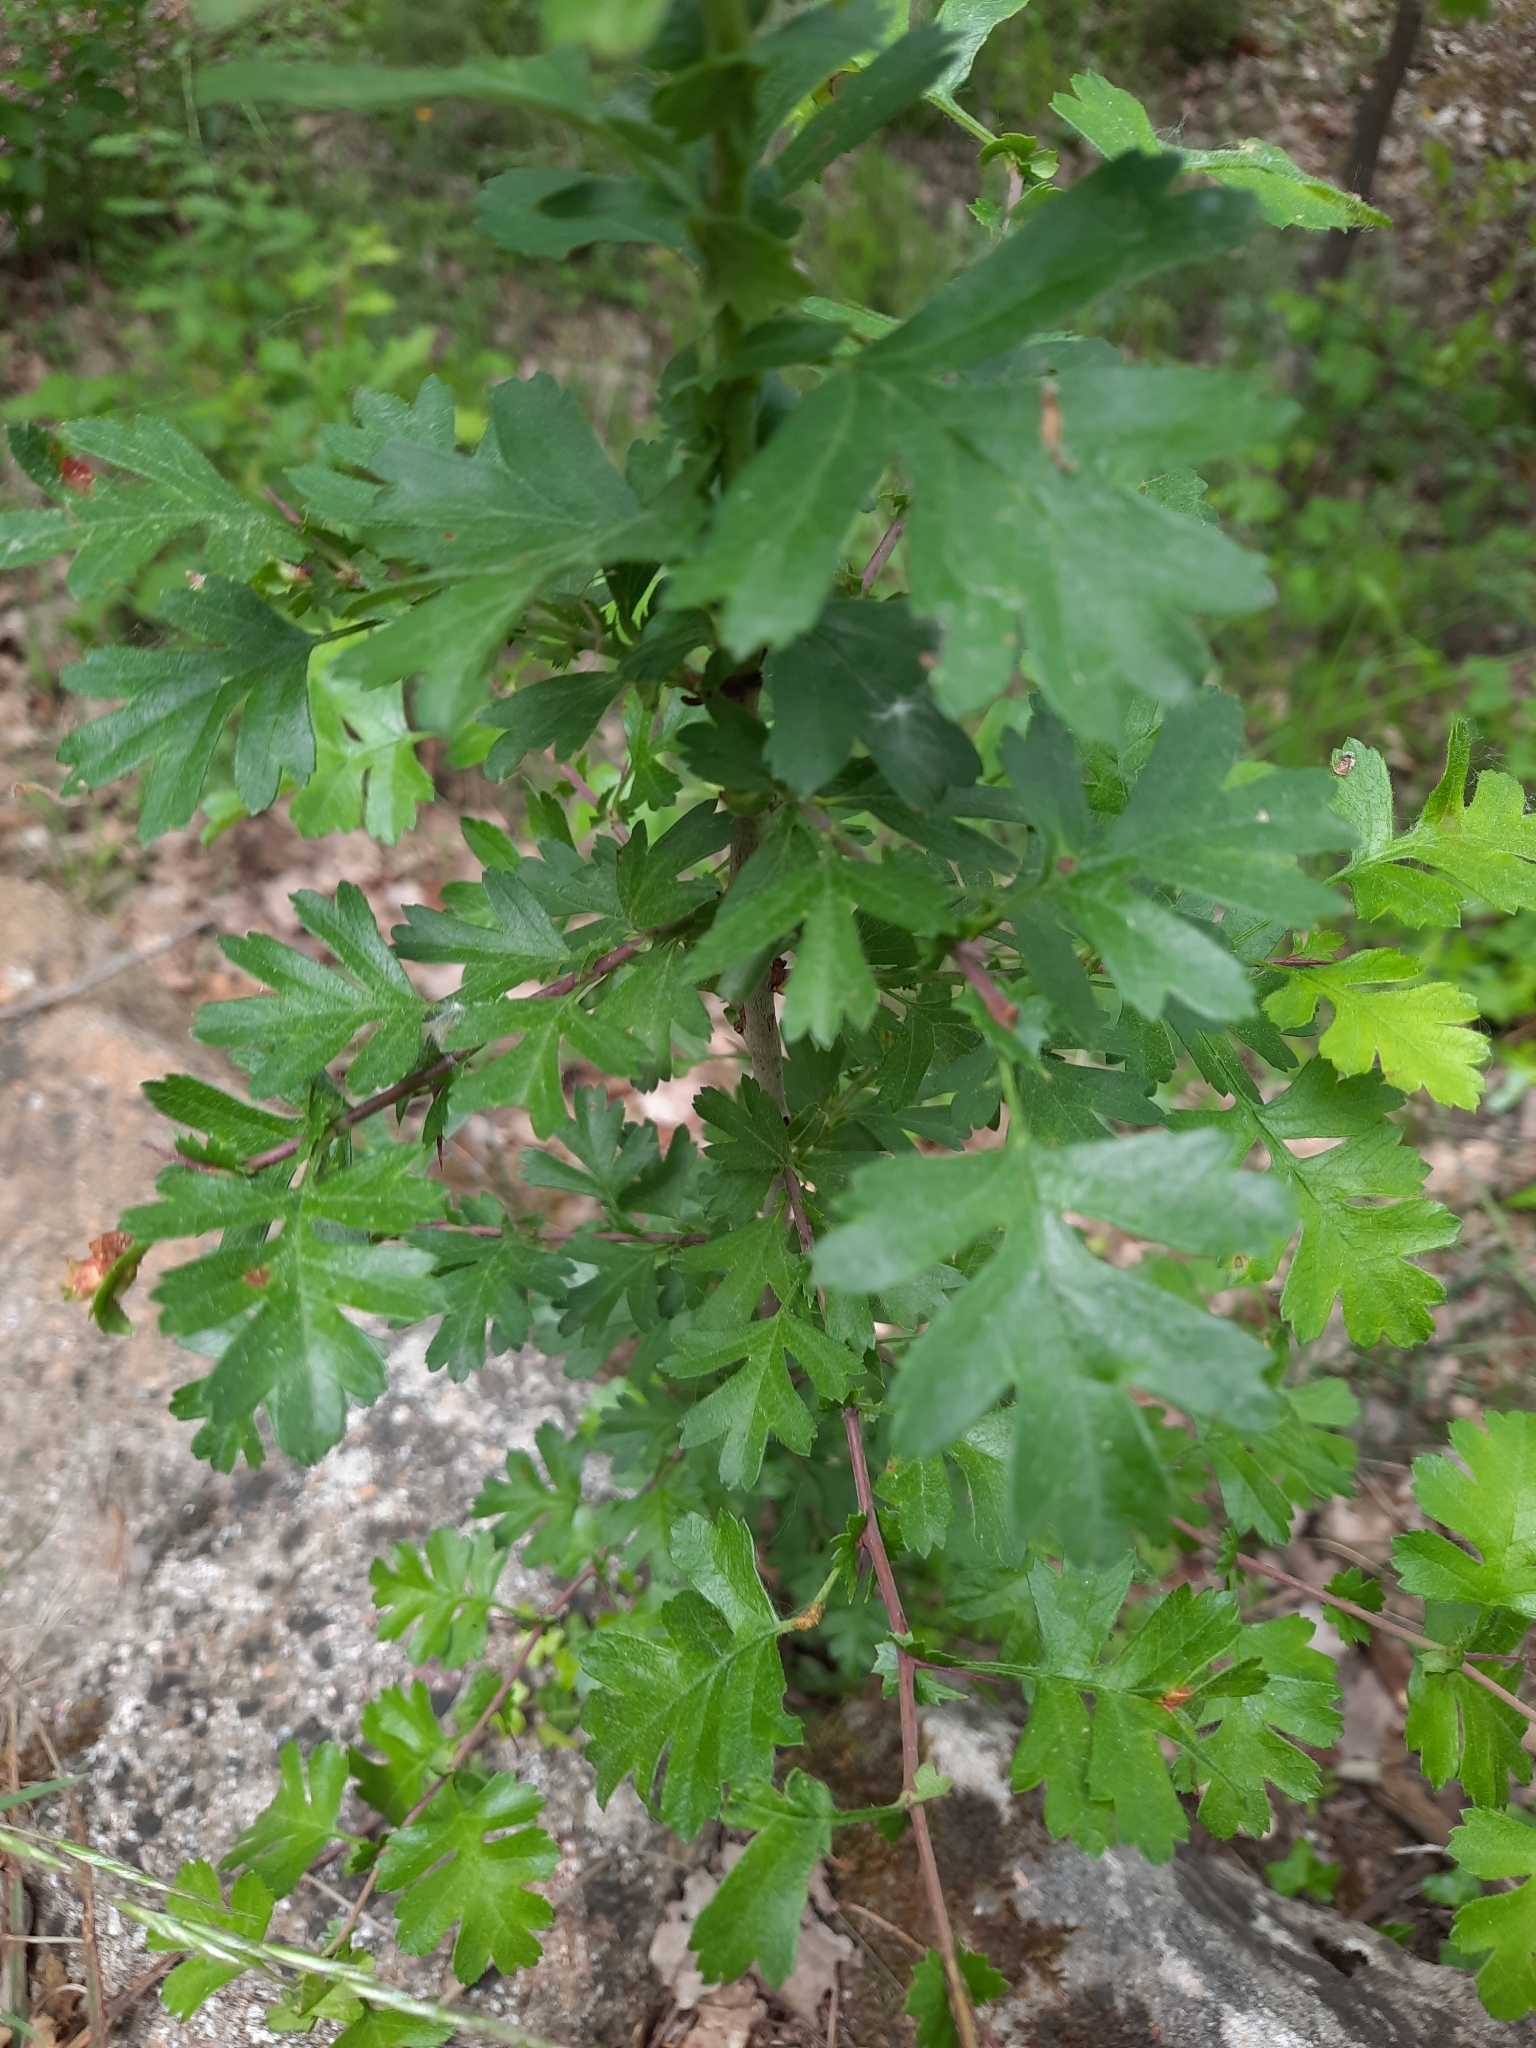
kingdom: Plantae
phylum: Tracheophyta
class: Magnoliopsida
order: Rosales
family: Rosaceae
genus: Crataegus
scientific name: Crataegus monogyna
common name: Hawthorn
